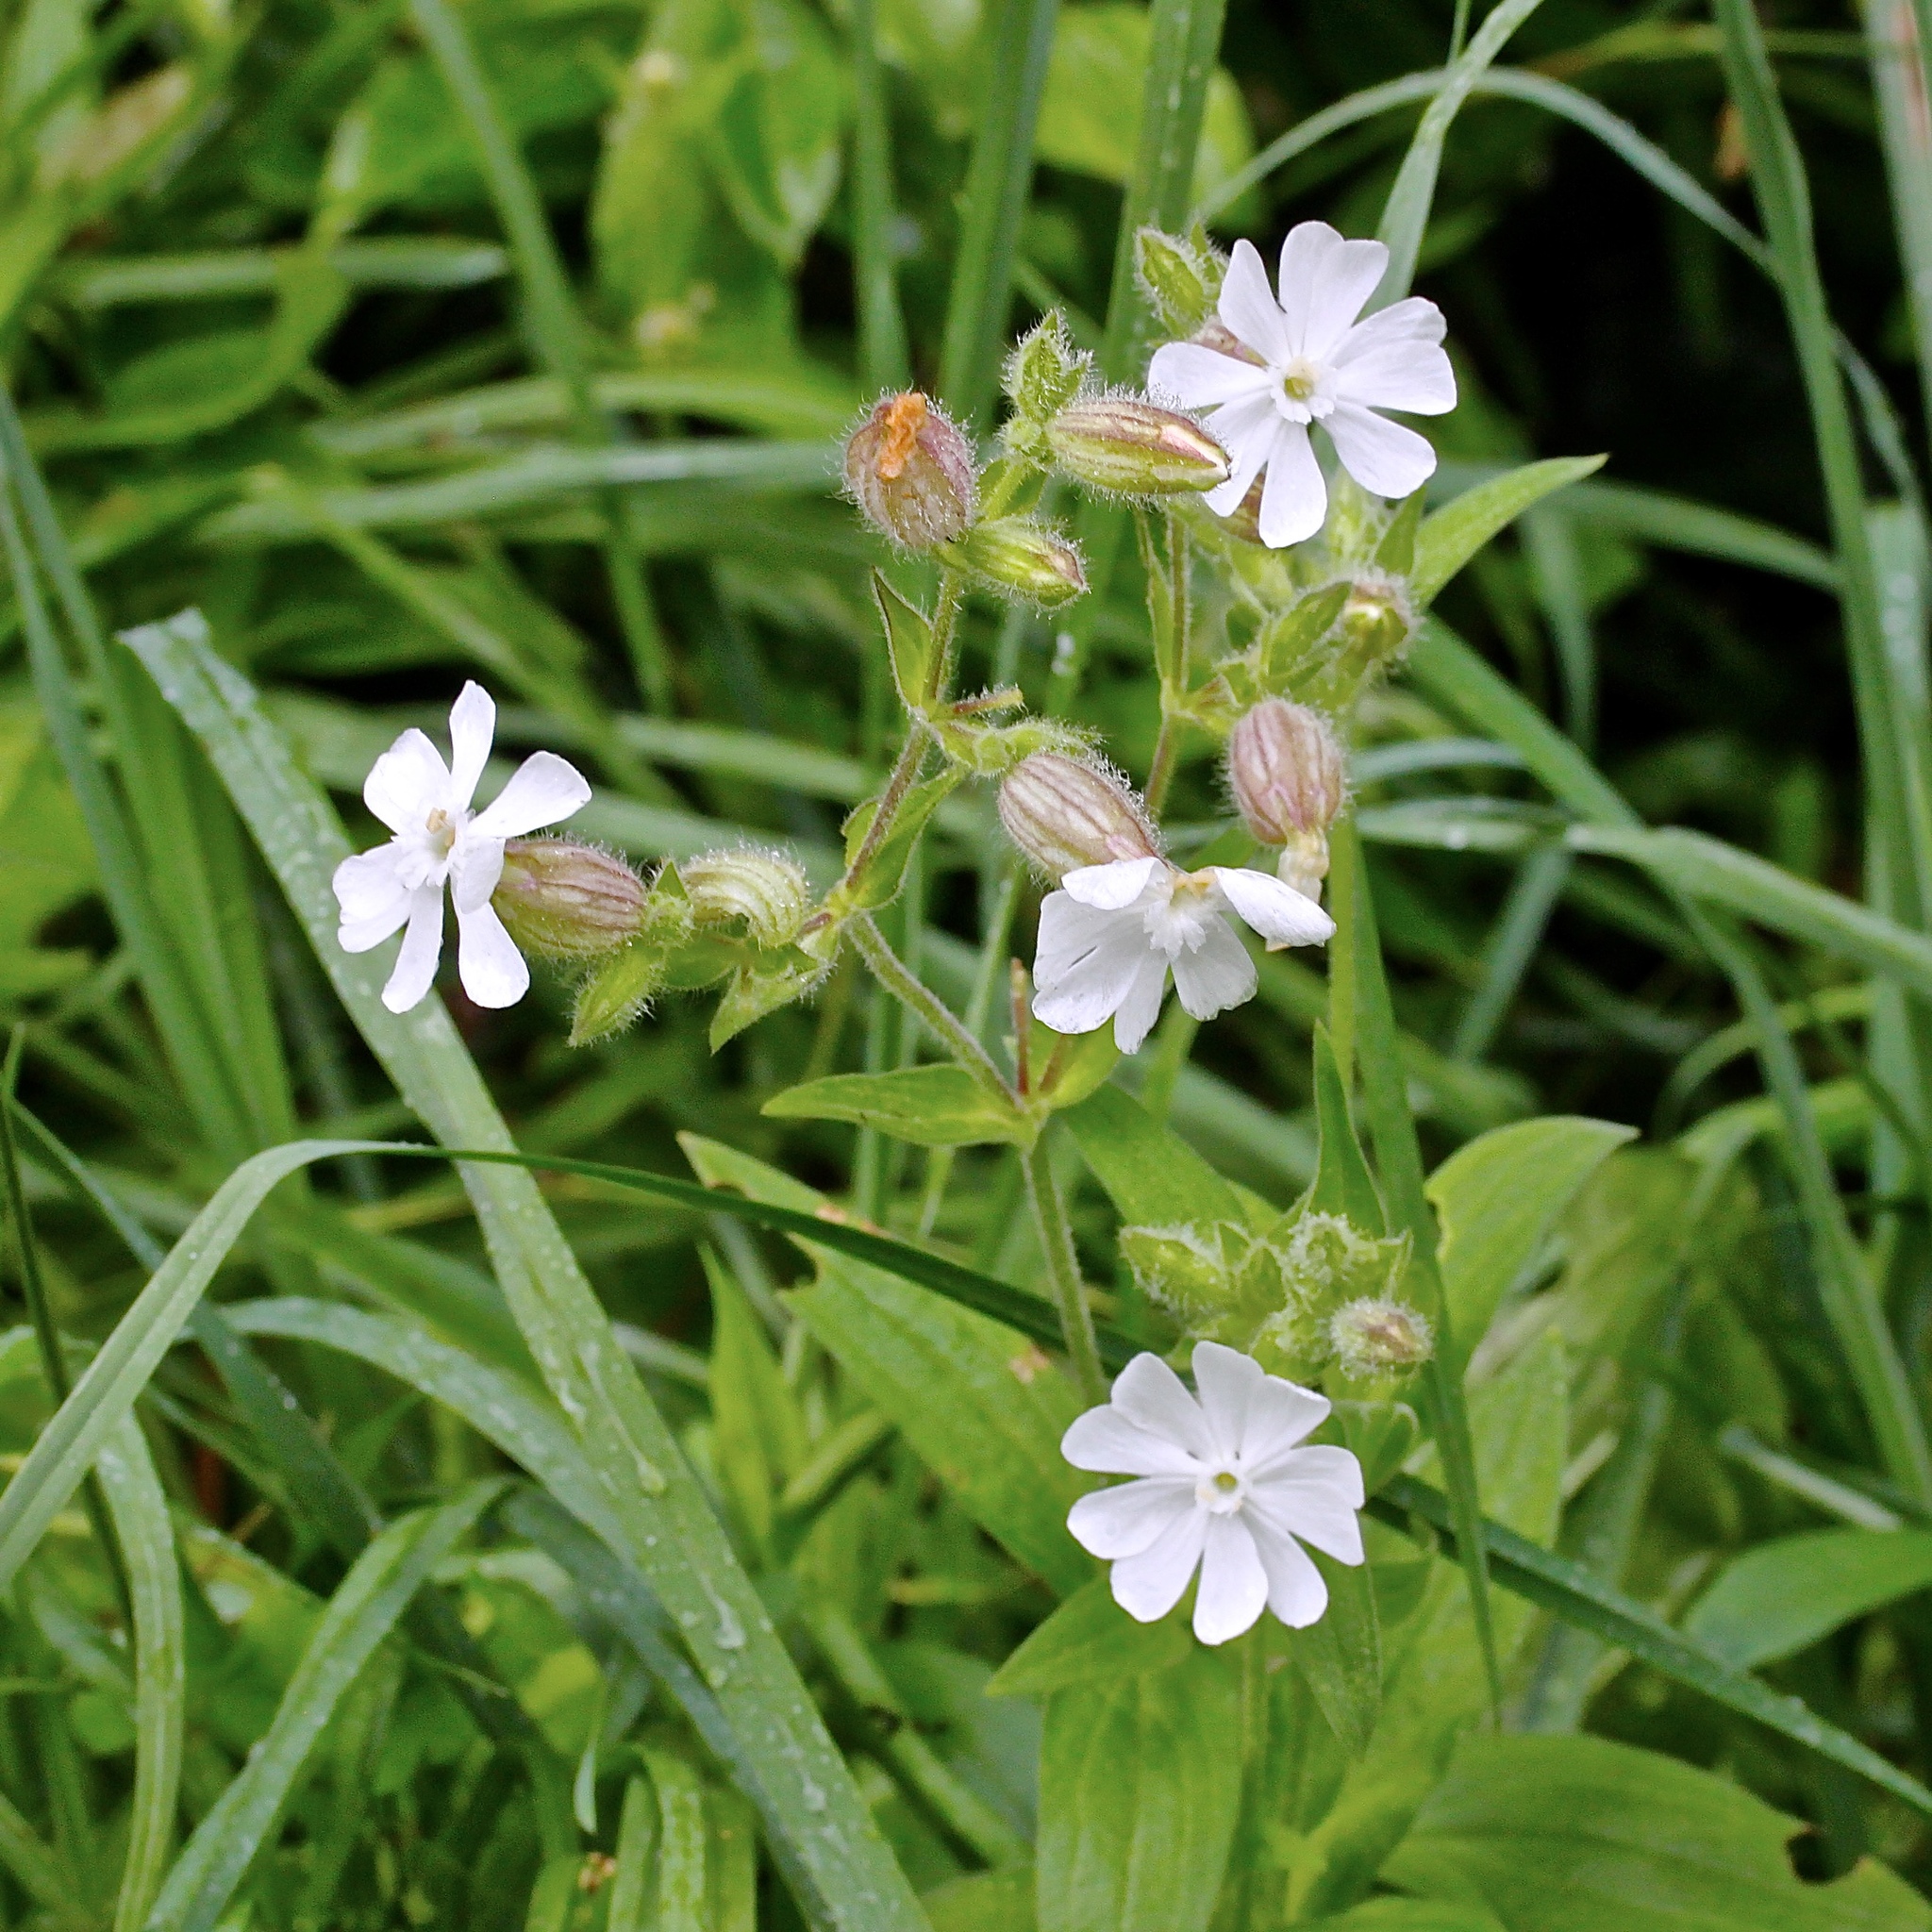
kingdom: Plantae
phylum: Tracheophyta
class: Magnoliopsida
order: Caryophyllales
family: Caryophyllaceae
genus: Silene
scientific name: Silene latifolia
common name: White campion
